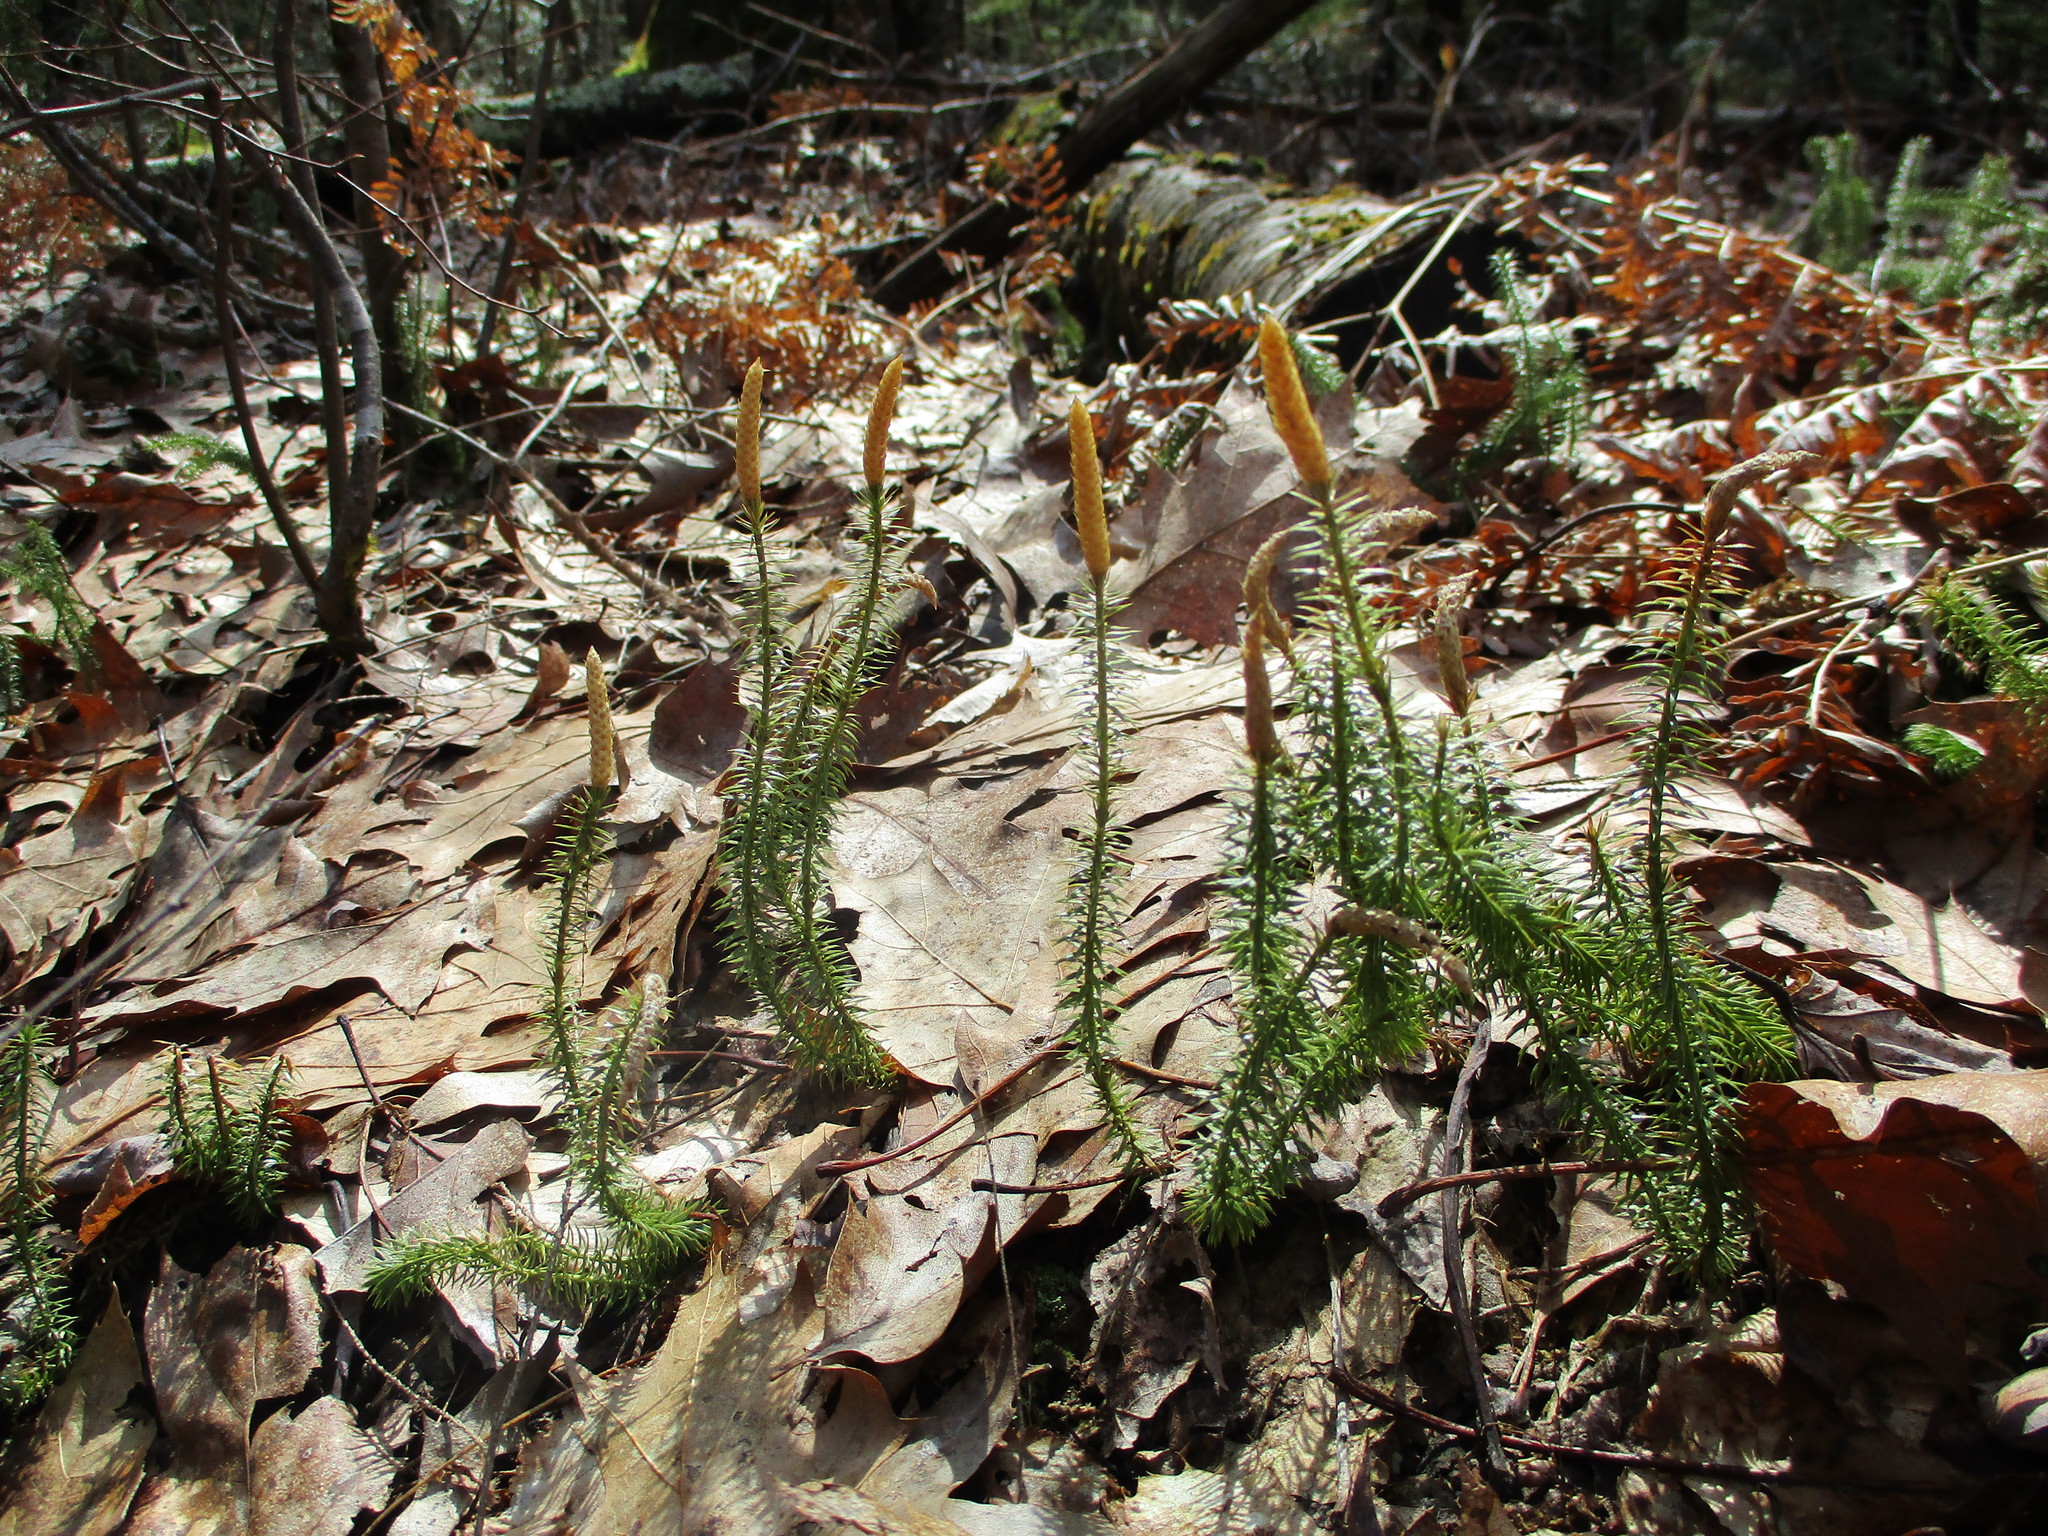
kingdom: Plantae
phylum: Tracheophyta
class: Lycopodiopsida
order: Lycopodiales
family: Lycopodiaceae
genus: Spinulum
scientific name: Spinulum annotinum
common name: Interrupted club-moss
